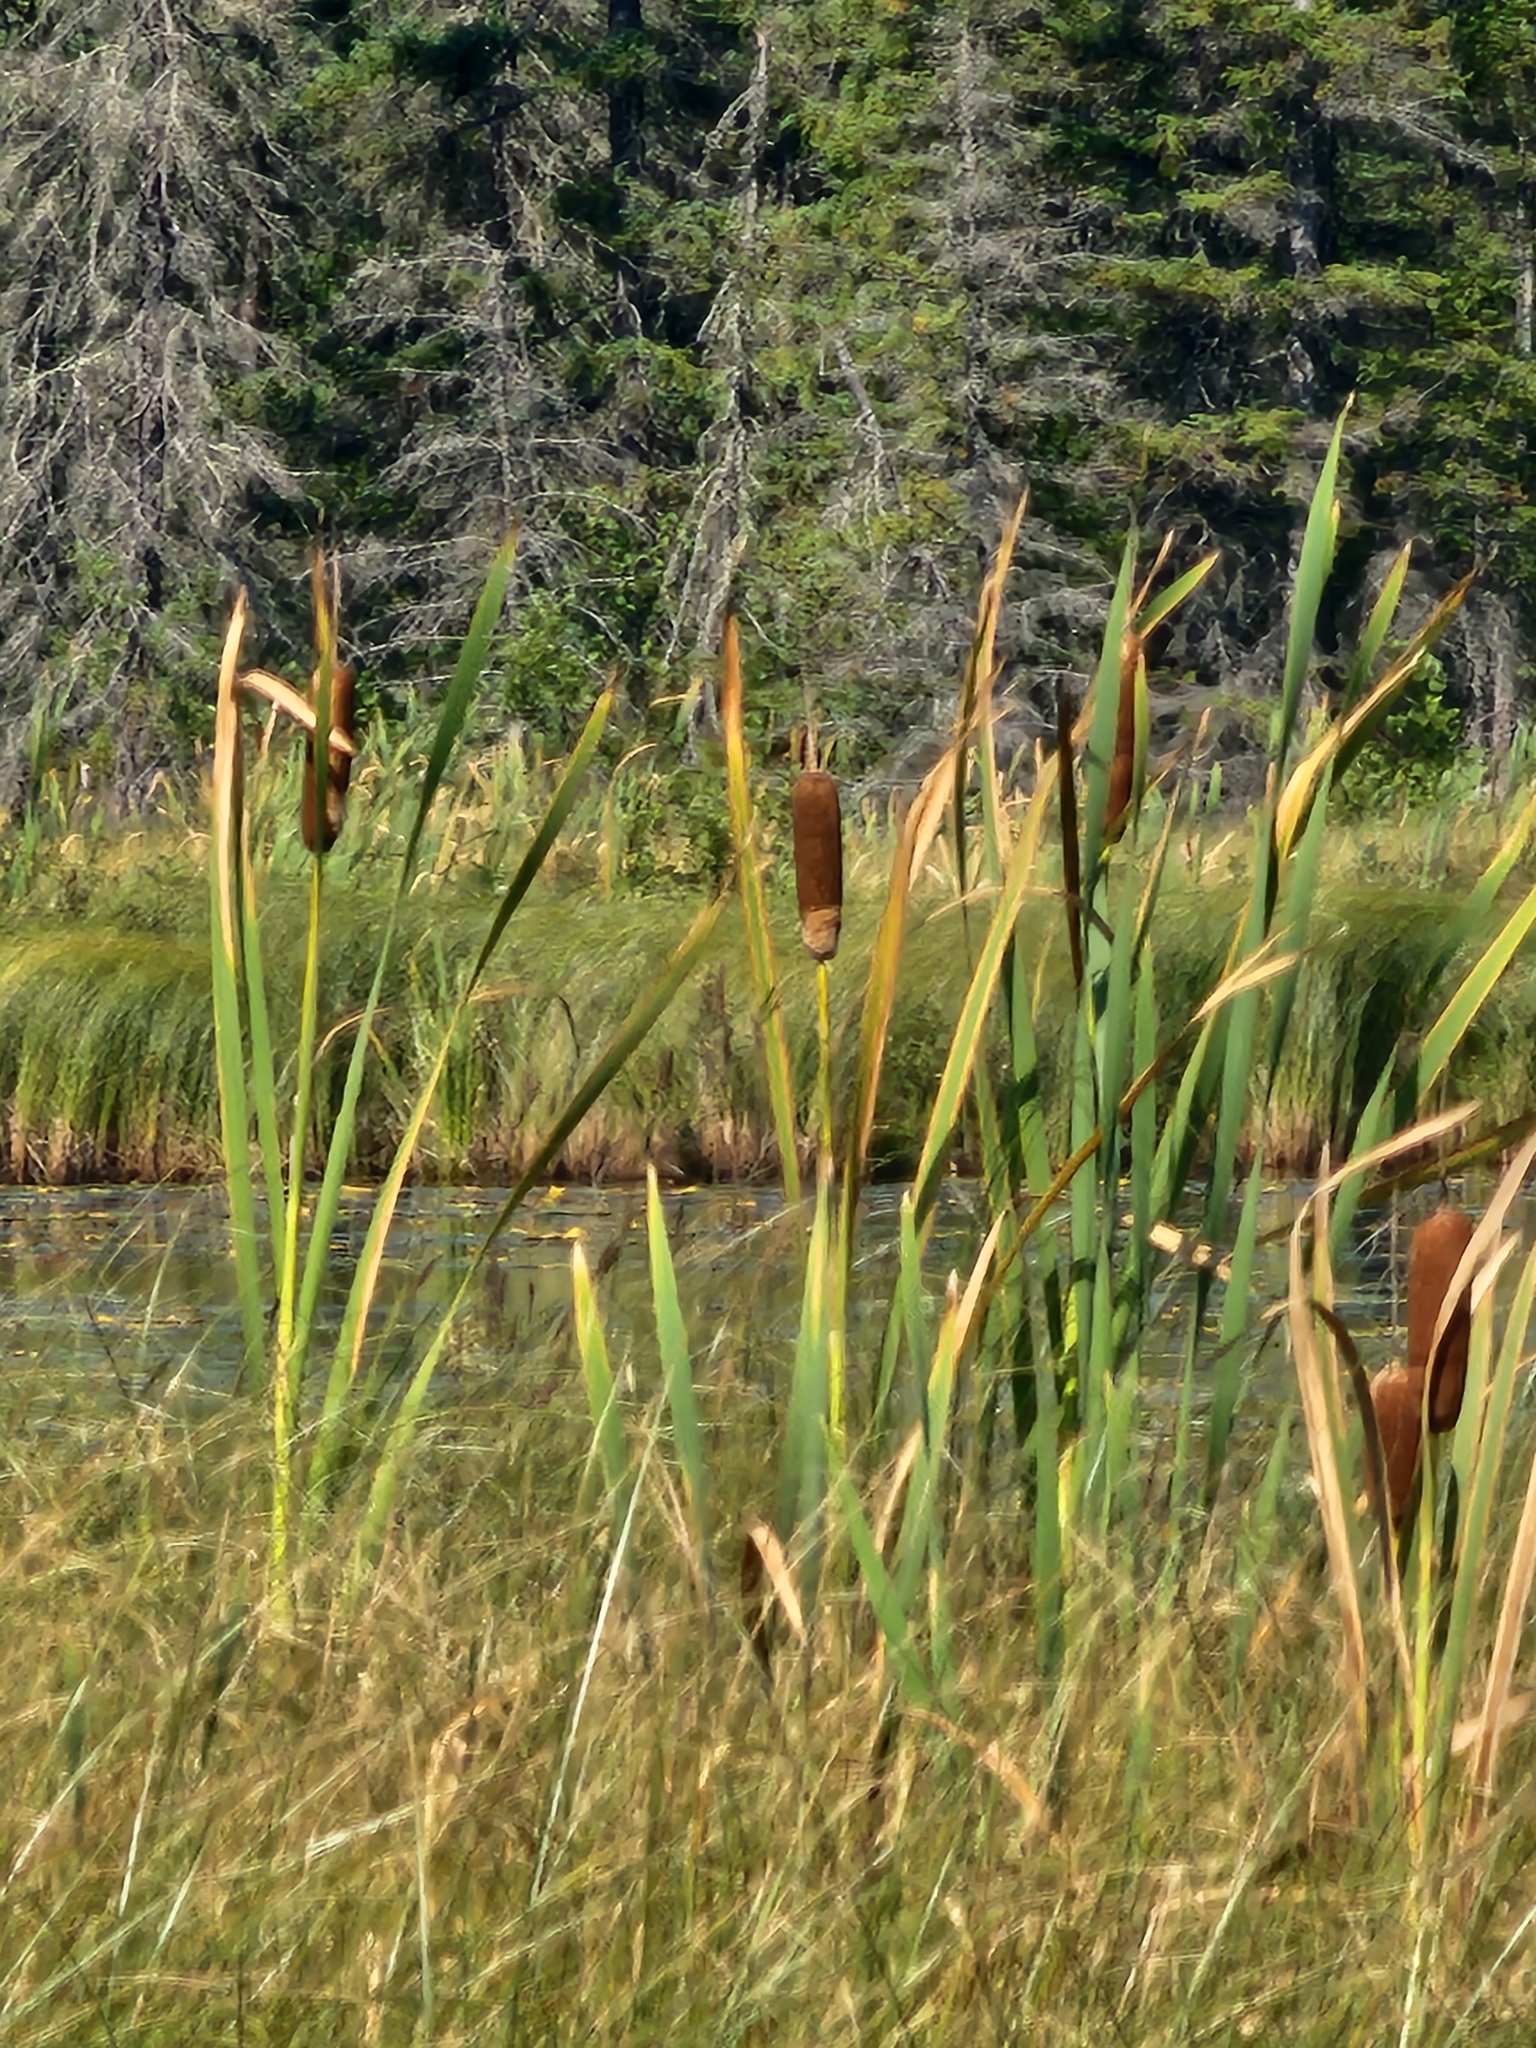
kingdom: Plantae
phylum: Tracheophyta
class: Liliopsida
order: Poales
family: Typhaceae
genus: Typha
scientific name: Typha latifolia
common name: Broadleaf cattail
